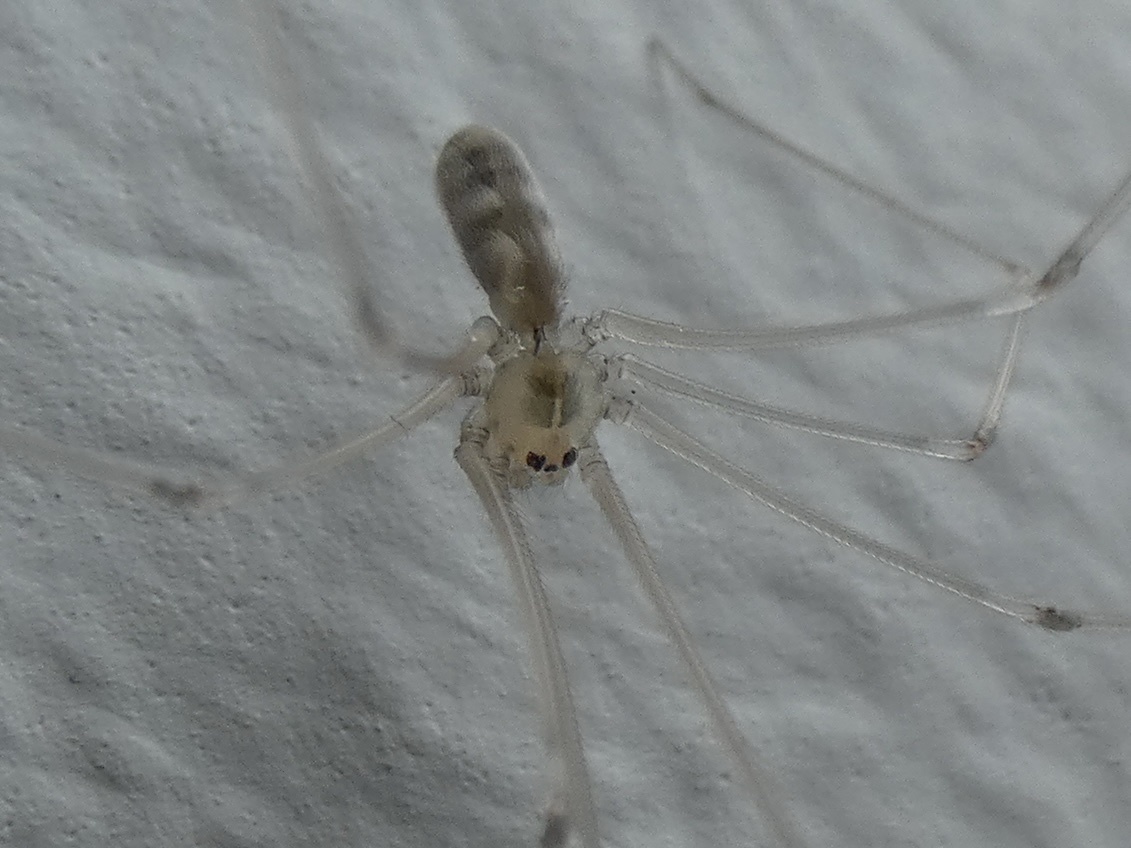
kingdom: Animalia
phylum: Arthropoda
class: Arachnida
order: Araneae
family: Pholcidae
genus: Pholcus
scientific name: Pholcus phalangioides
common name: Longbodied cellar spider
